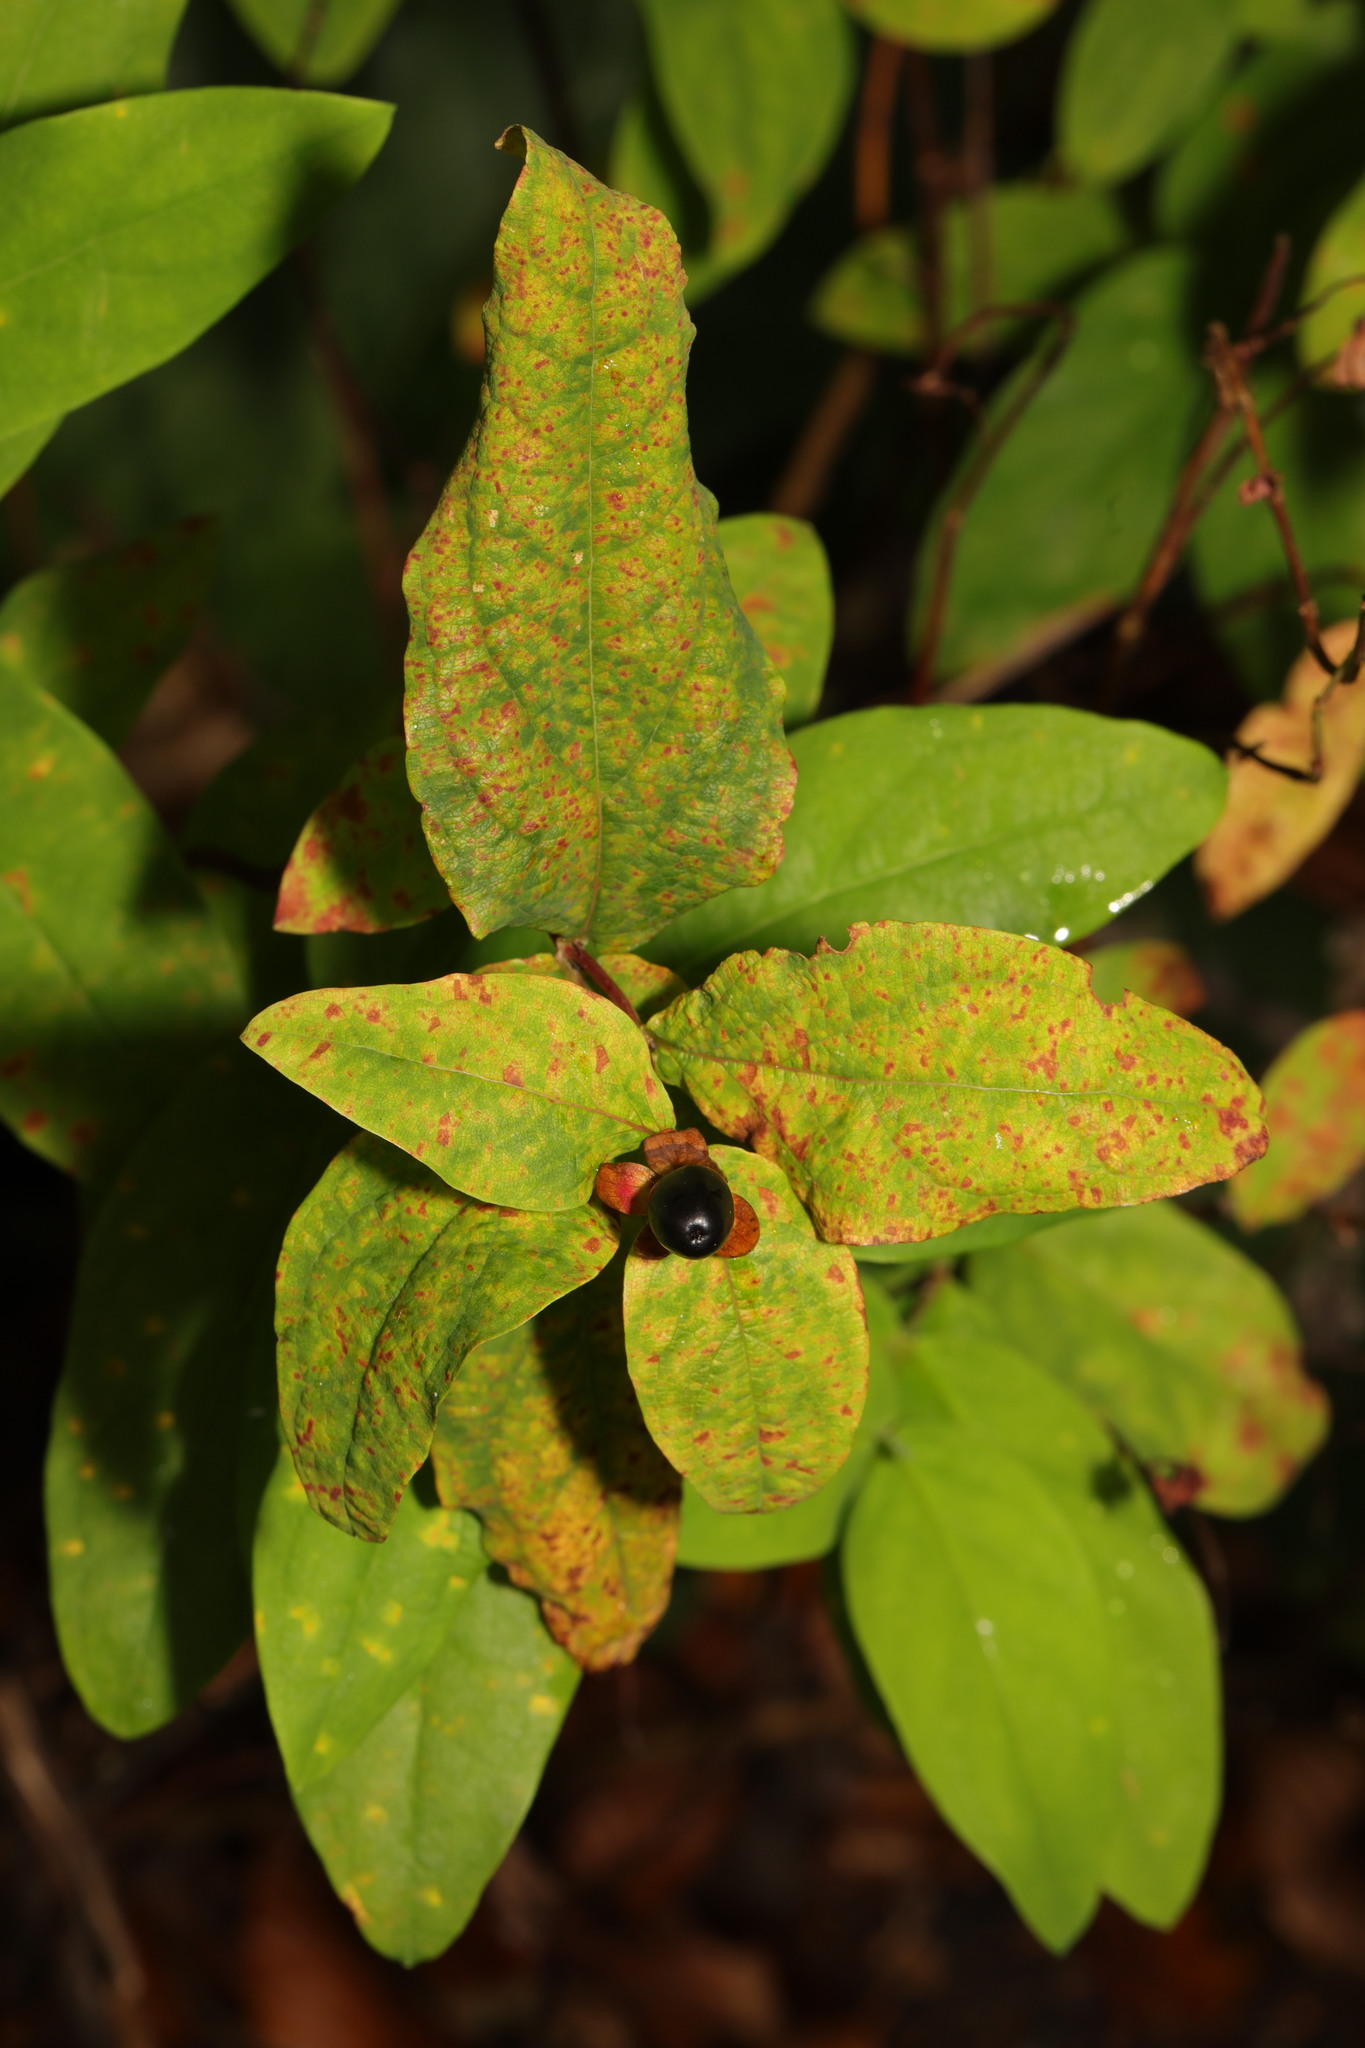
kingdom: Plantae
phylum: Tracheophyta
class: Magnoliopsida
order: Malpighiales
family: Hypericaceae
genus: Hypericum
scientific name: Hypericum androsaemum
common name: Sweet-amber
